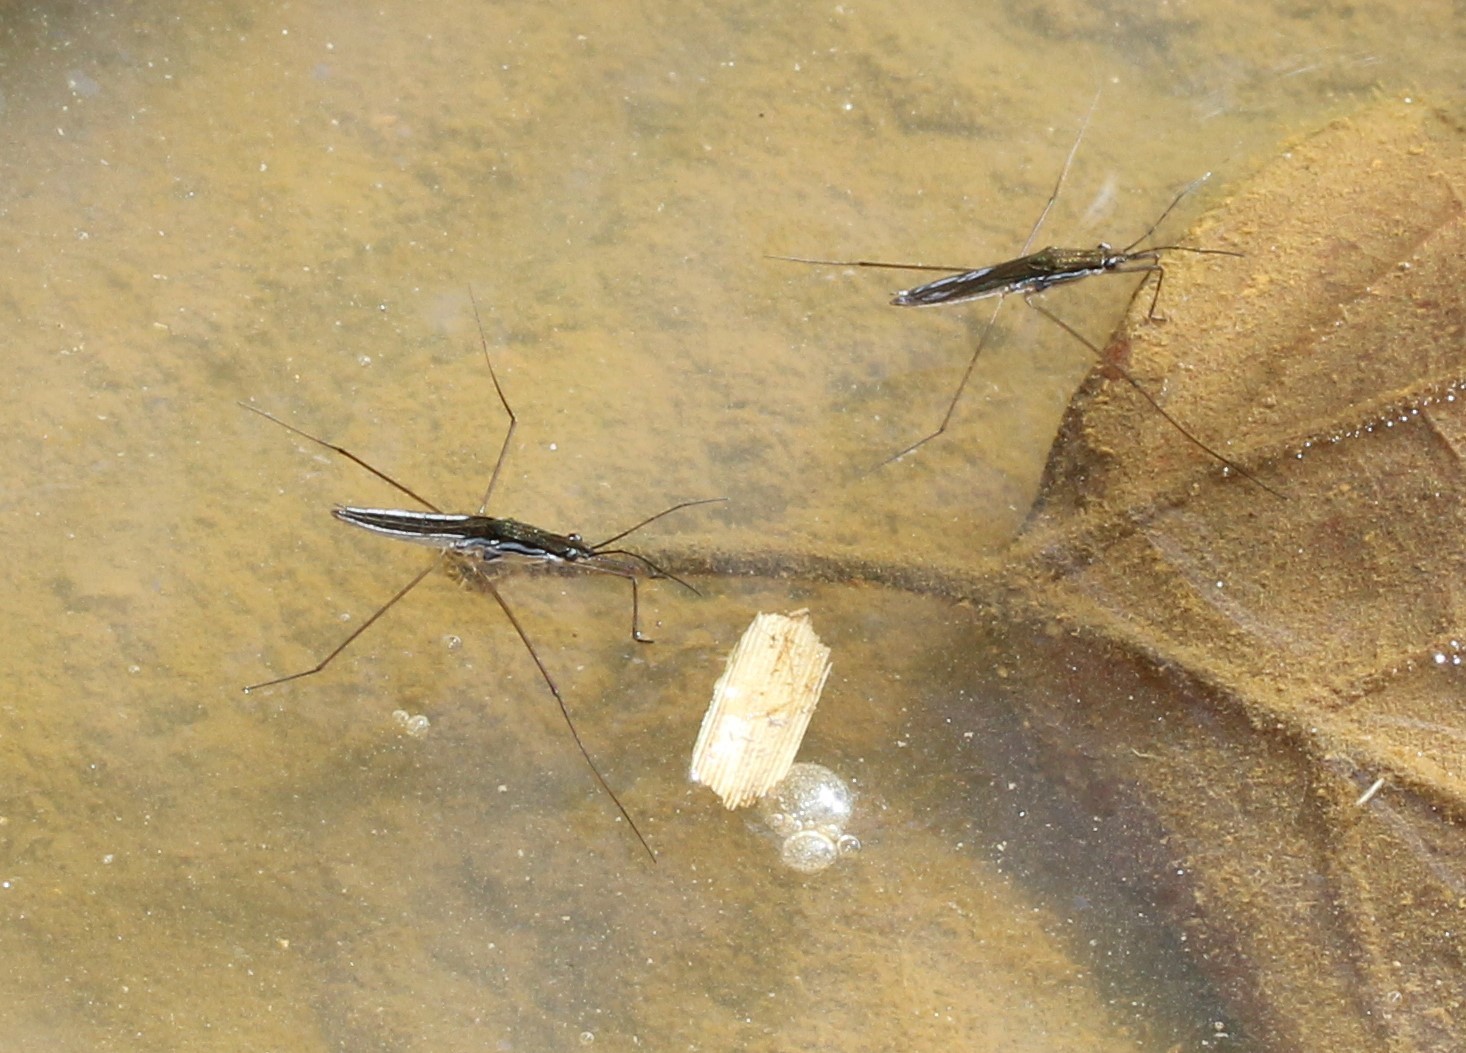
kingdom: Animalia
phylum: Arthropoda
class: Insecta
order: Hemiptera
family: Gerridae
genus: Limnoporus
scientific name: Limnoporus canaliculatus
